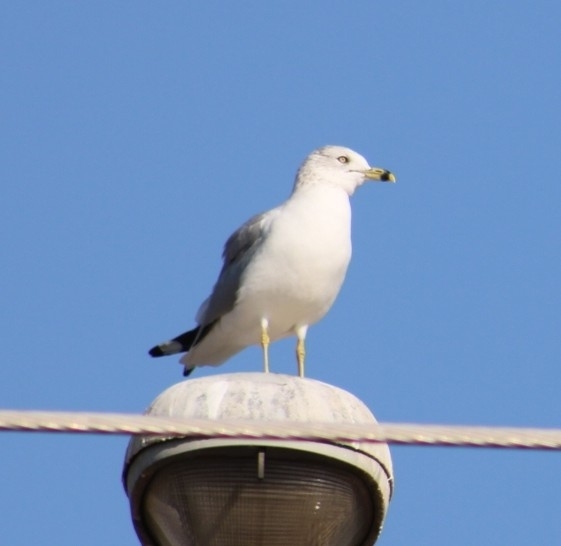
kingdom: Animalia
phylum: Chordata
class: Aves
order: Charadriiformes
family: Laridae
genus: Larus
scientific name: Larus delawarensis
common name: Ring-billed gull
